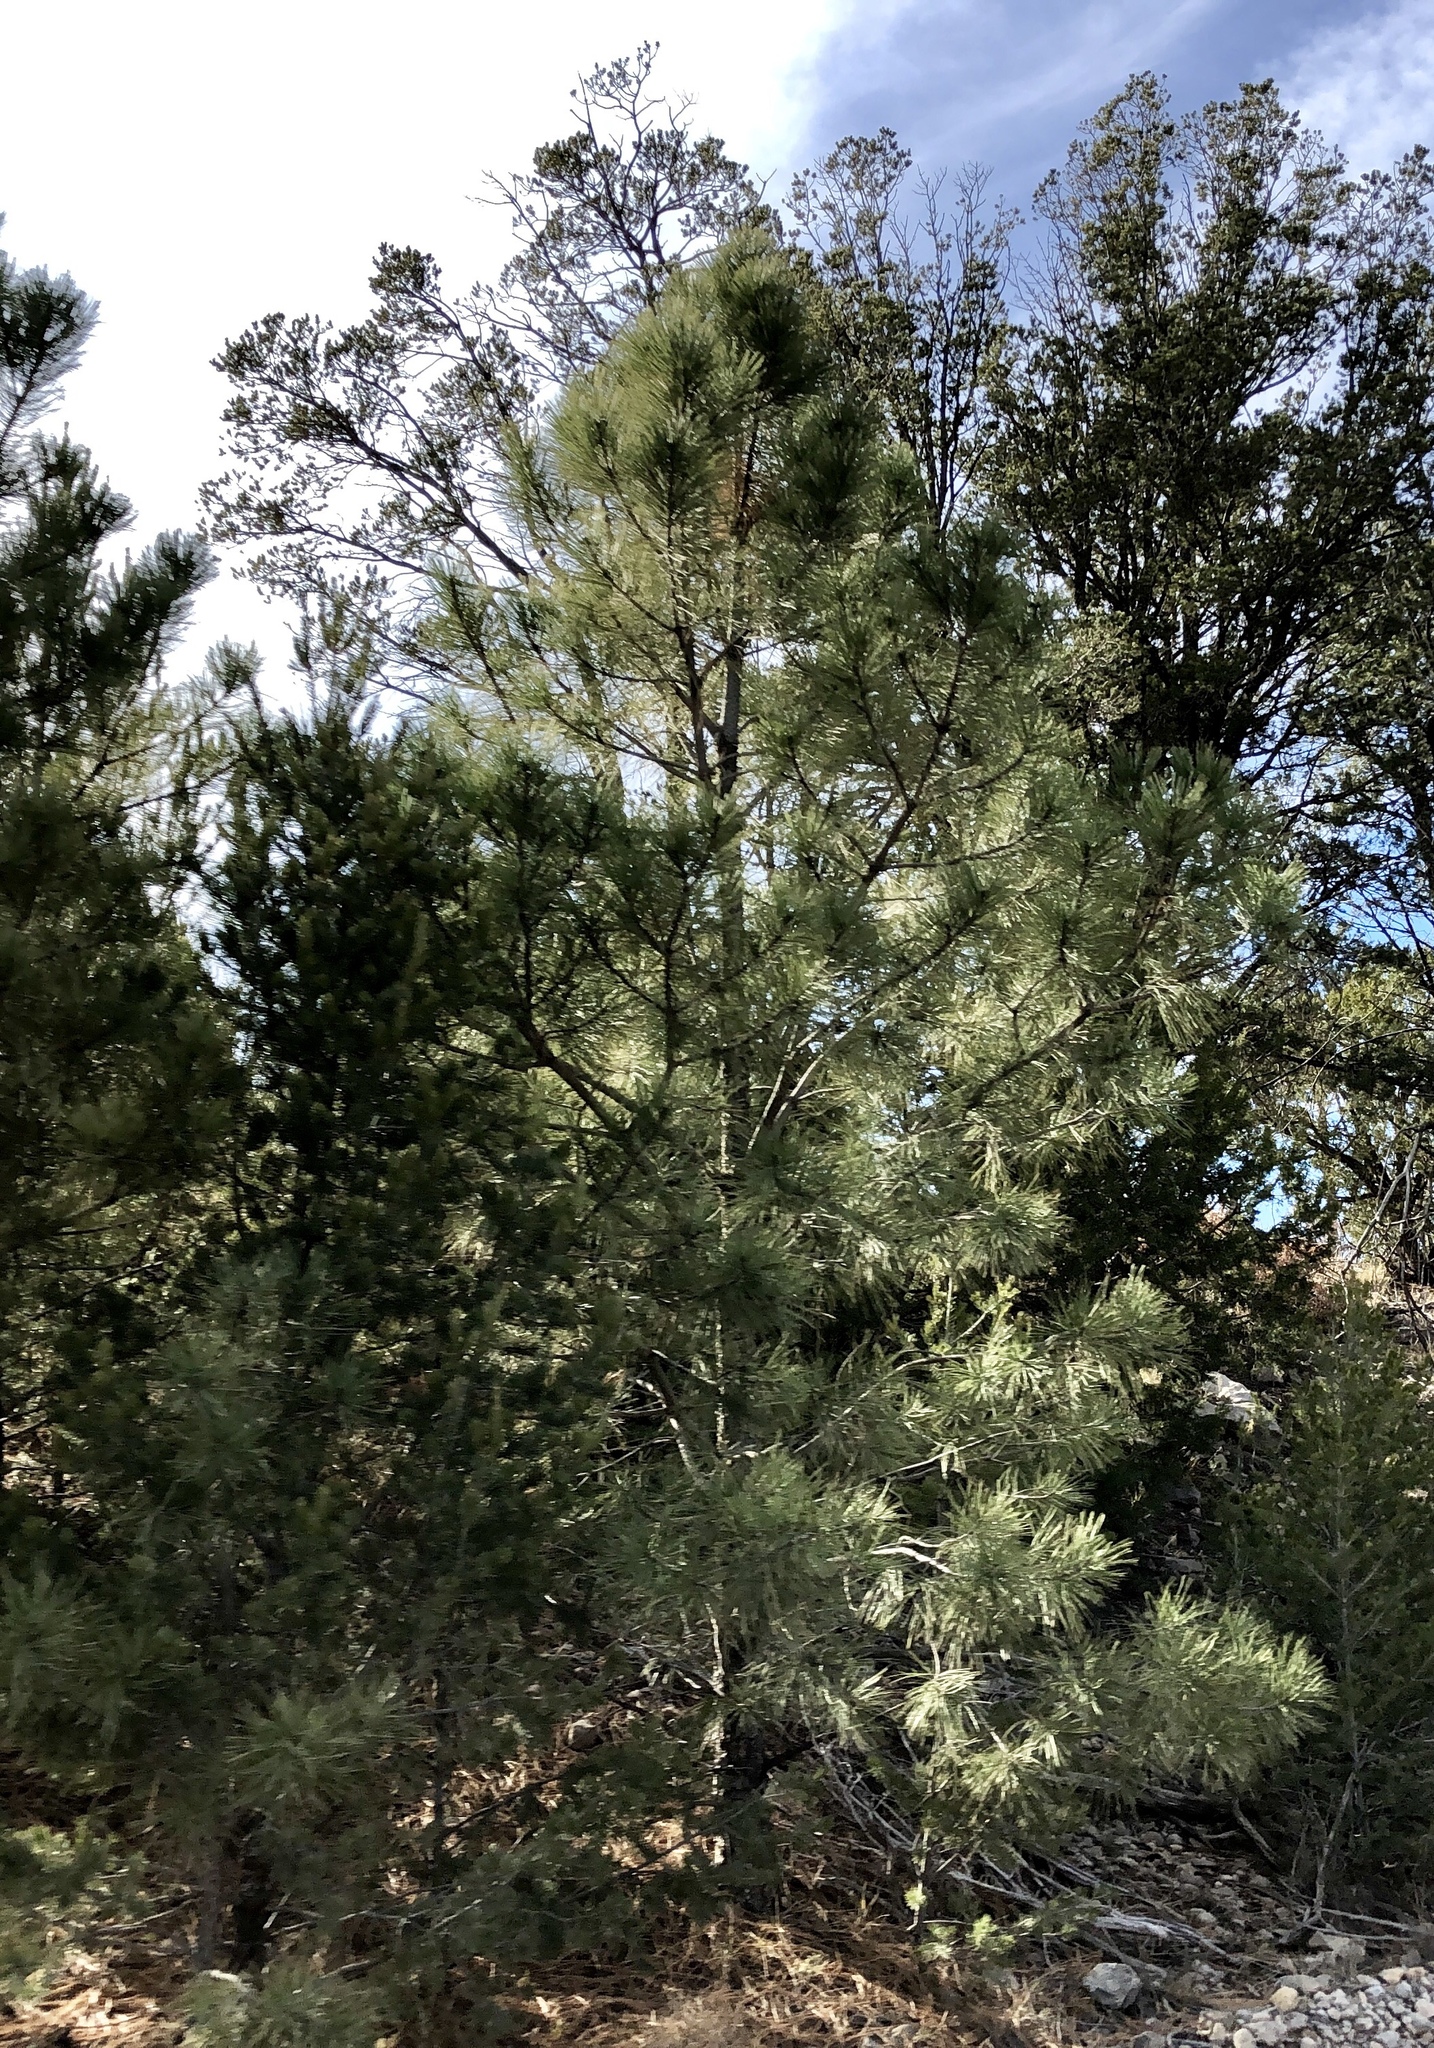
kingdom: Plantae
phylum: Tracheophyta
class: Pinopsida
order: Pinales
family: Pinaceae
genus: Pinus
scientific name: Pinus ponderosa
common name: Western yellow-pine
